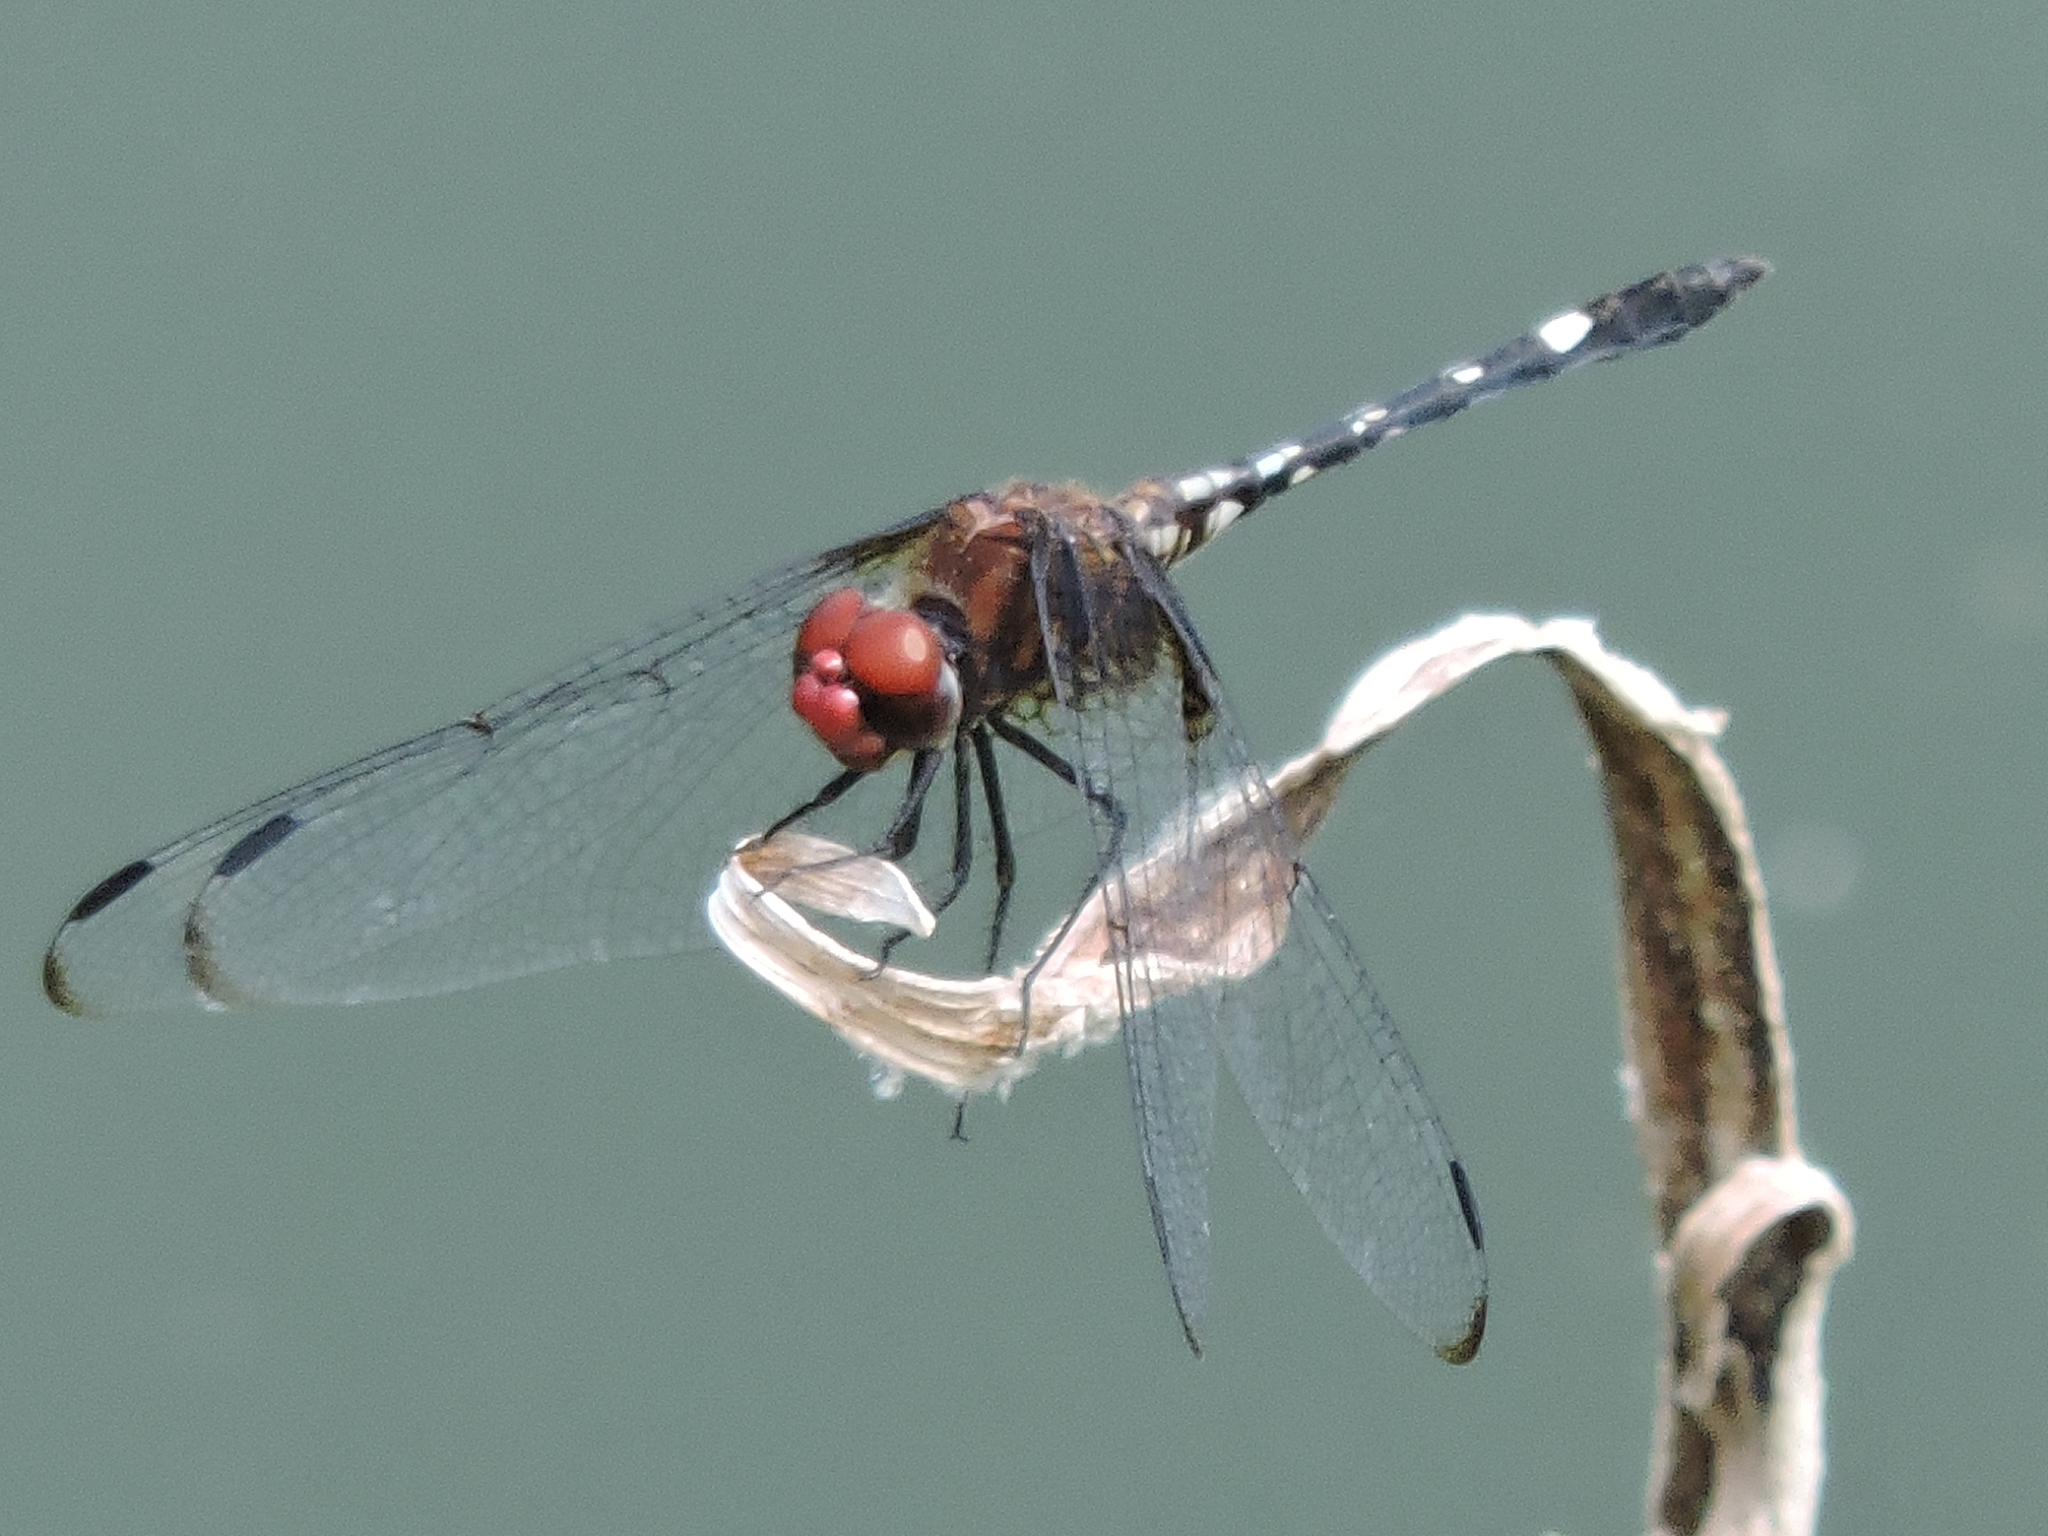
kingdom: Animalia
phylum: Arthropoda
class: Insecta
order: Odonata
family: Libellulidae
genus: Dythemis
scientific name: Dythemis fugax
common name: Checkered setwing
